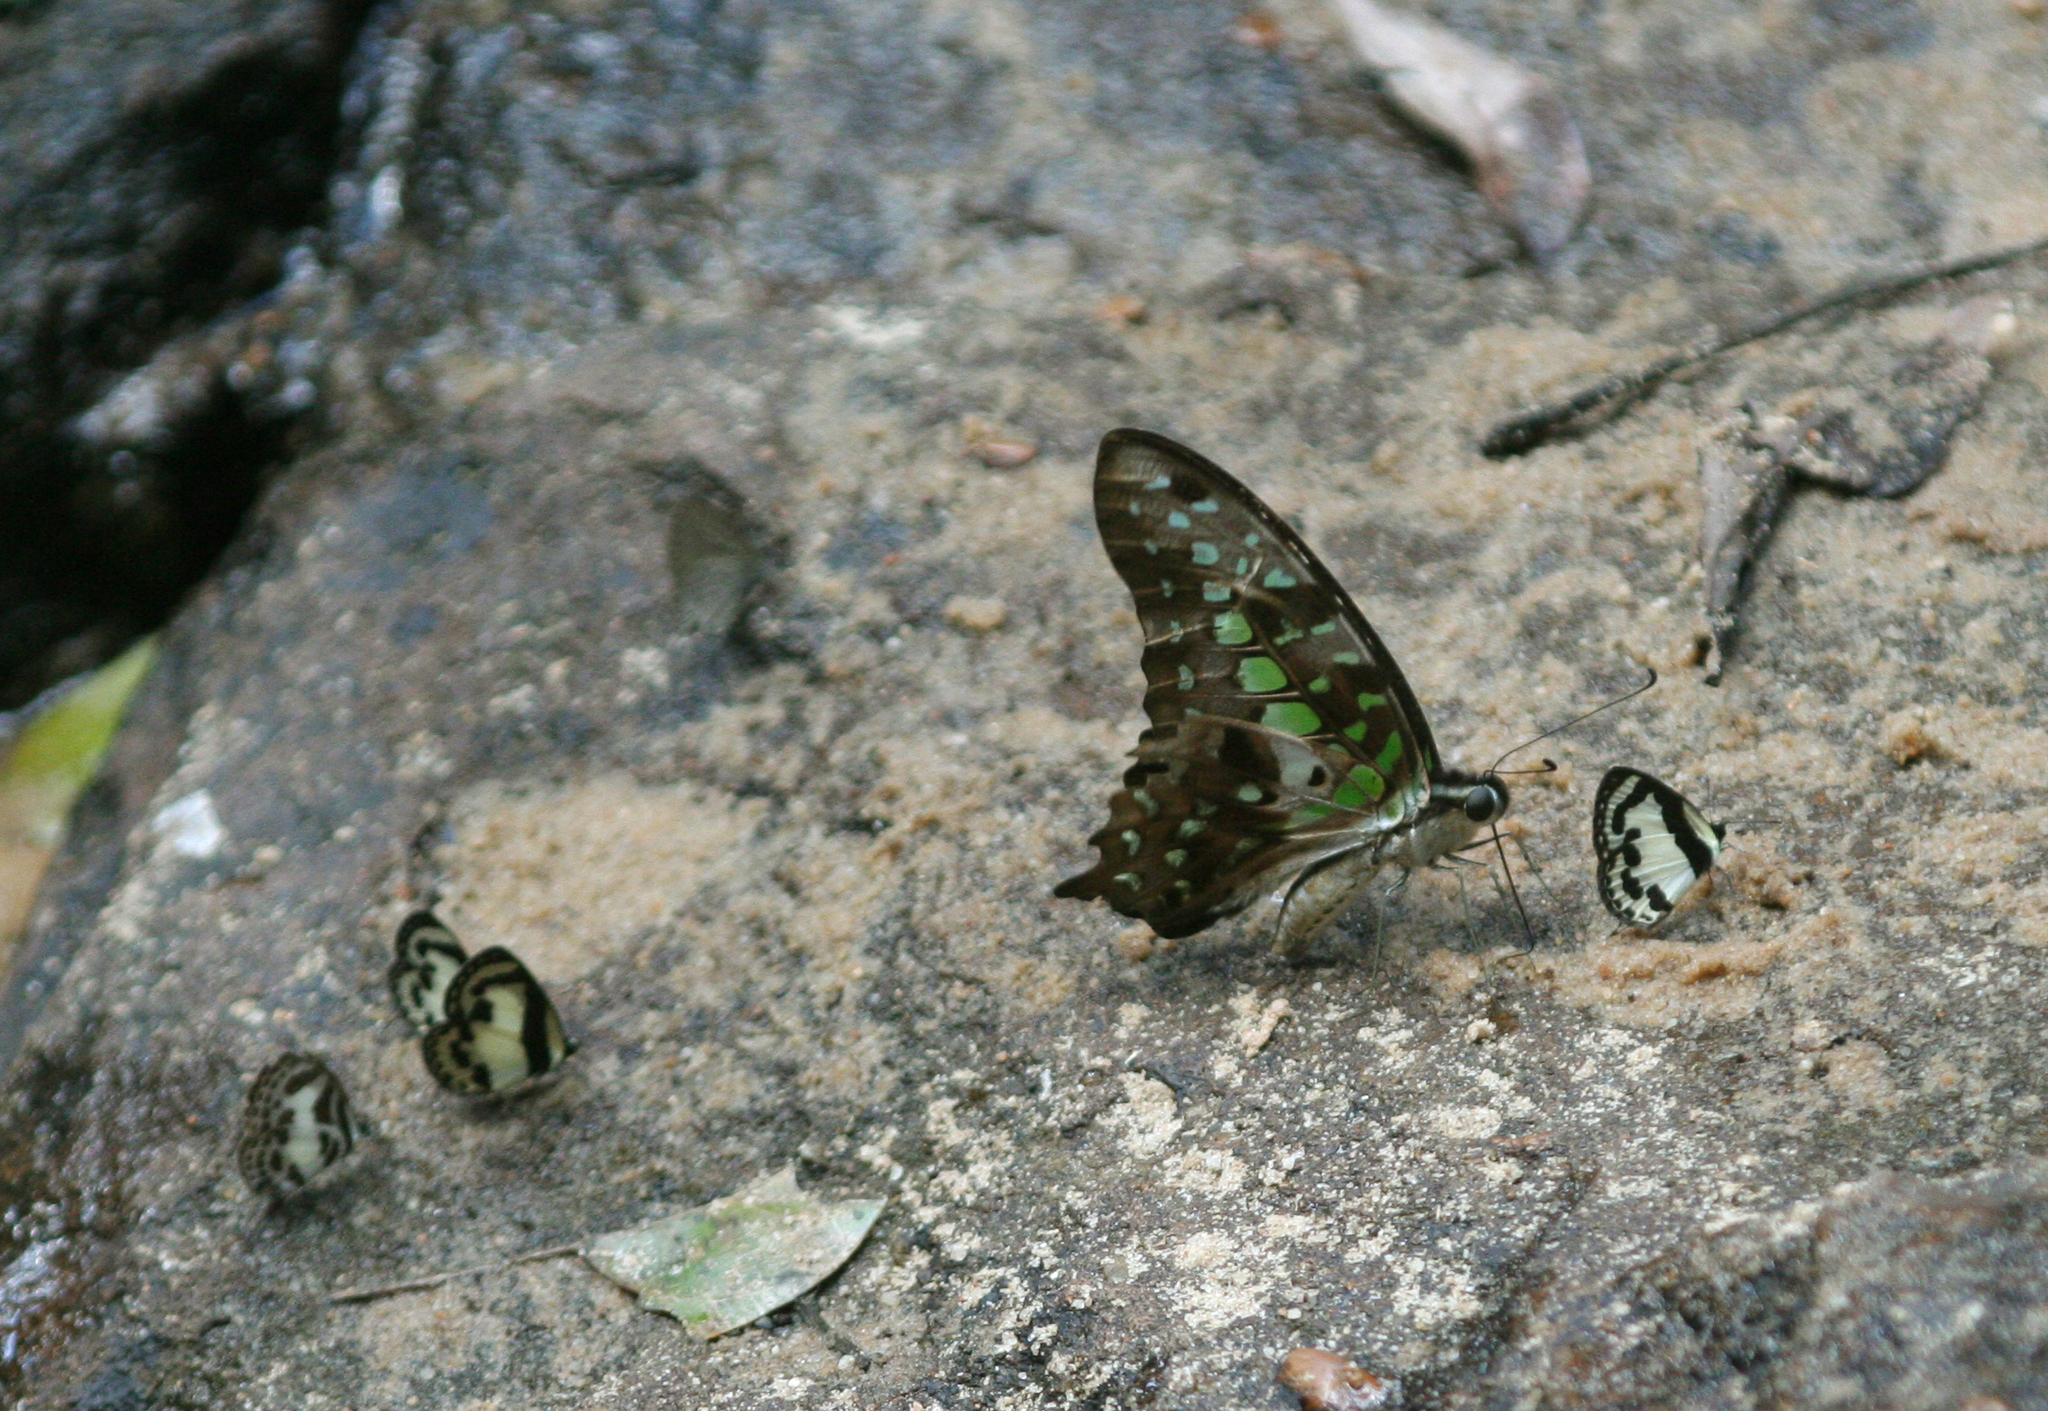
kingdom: Animalia
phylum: Arthropoda
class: Insecta
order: Lepidoptera
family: Papilionidae
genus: Graphium
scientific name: Graphium agamemnon
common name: Tailed jay
